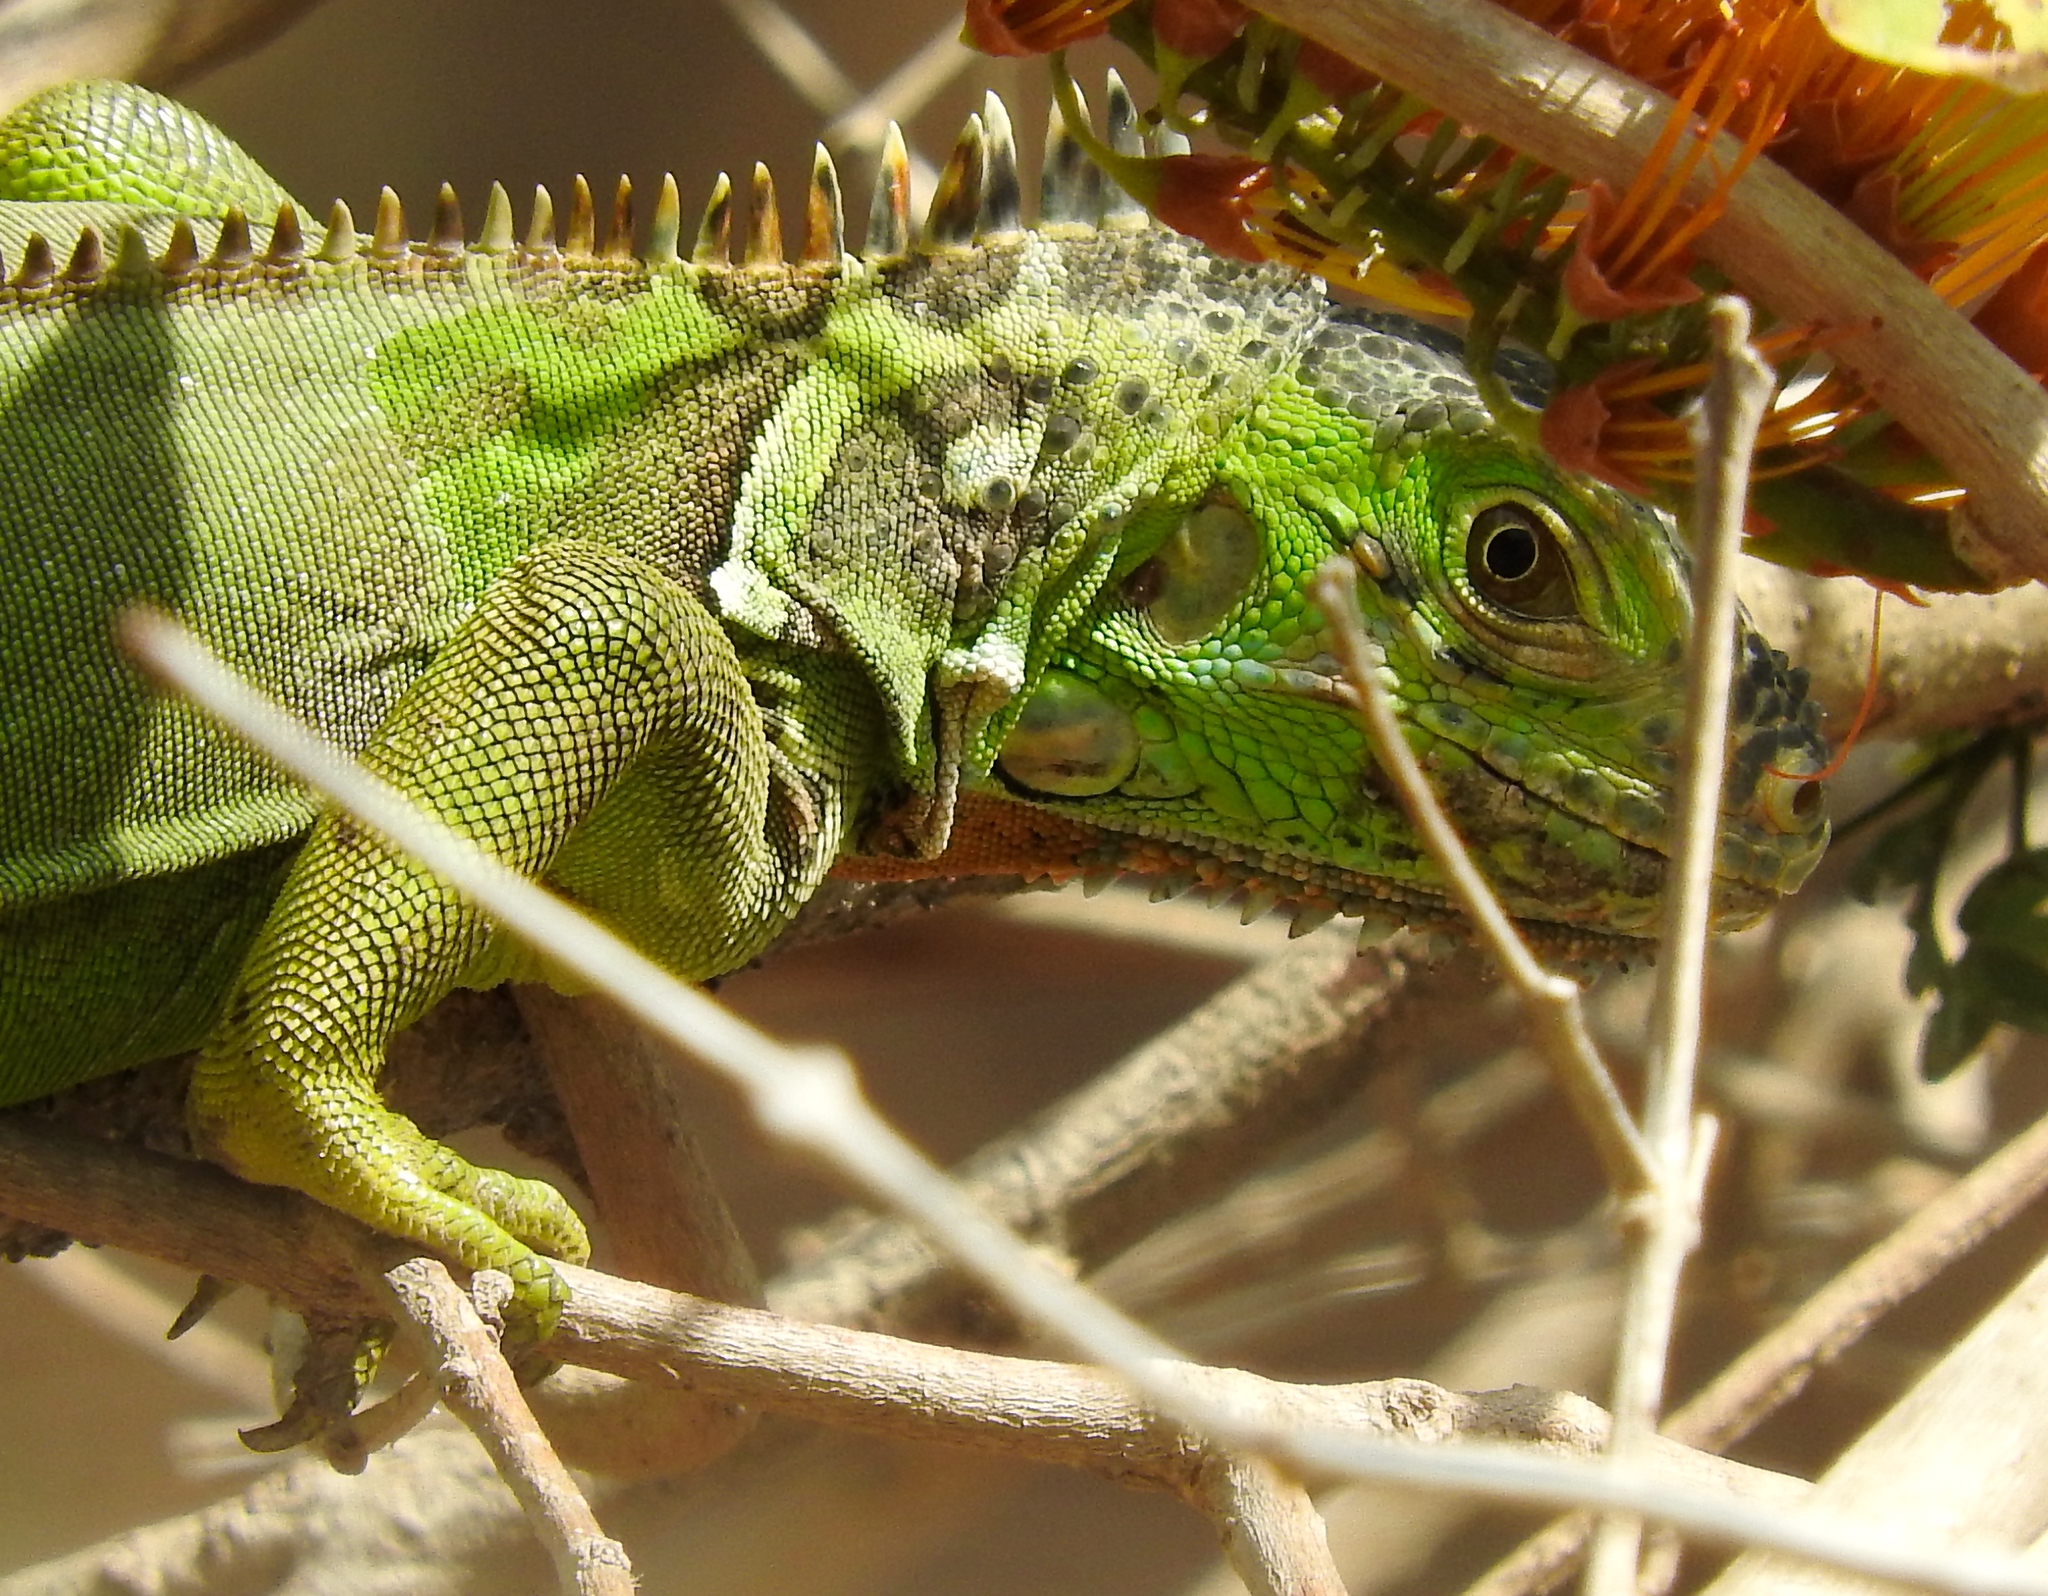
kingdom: Animalia
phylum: Chordata
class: Squamata
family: Iguanidae
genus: Iguana
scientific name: Iguana iguana
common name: Green iguana
